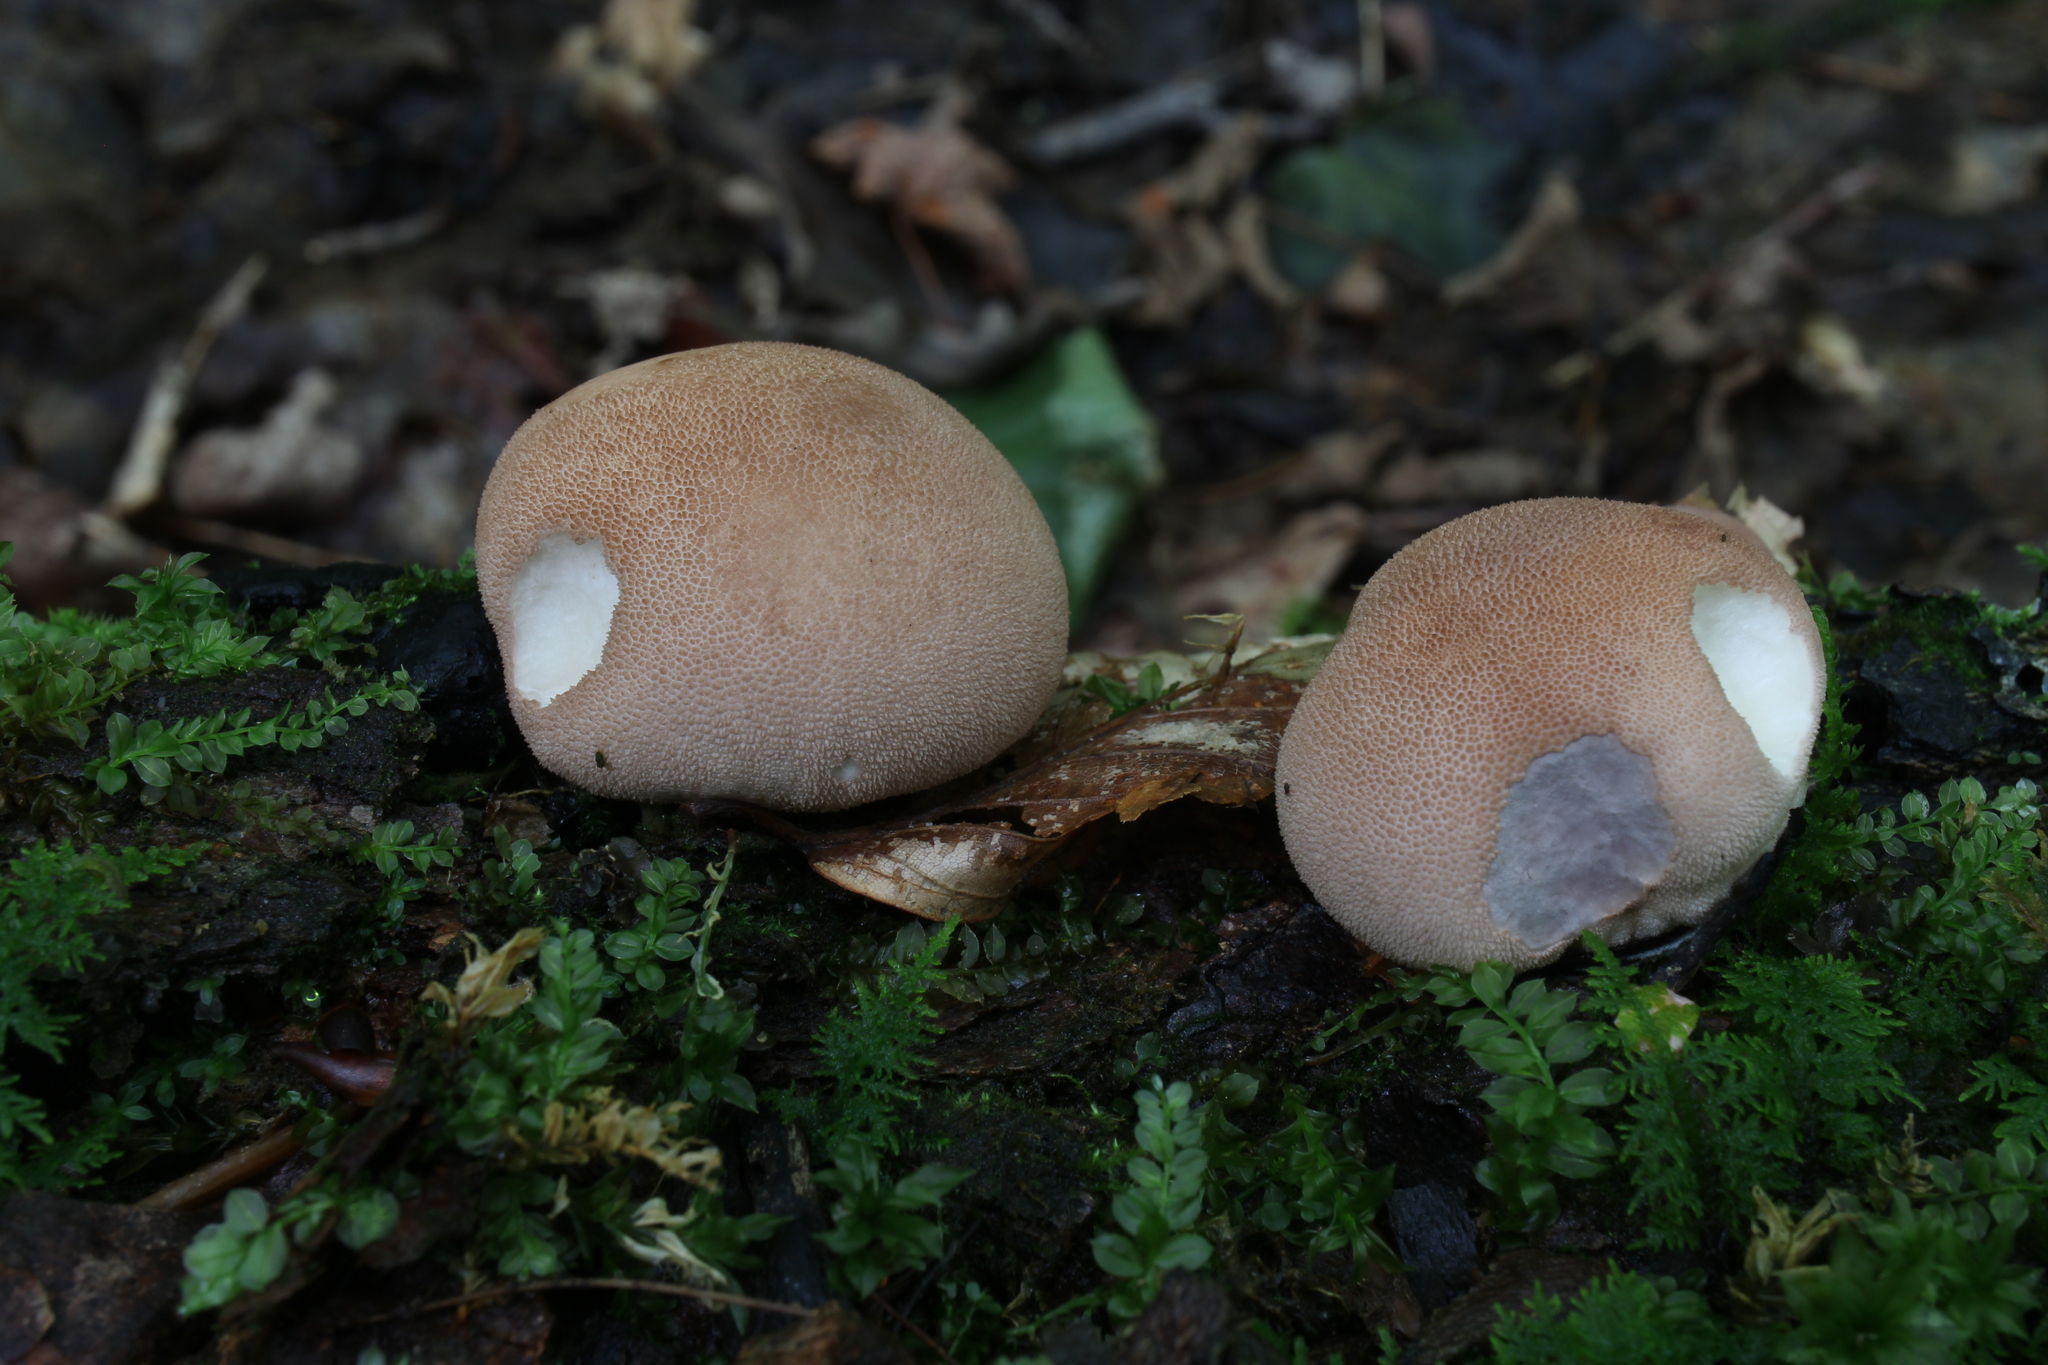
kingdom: Fungi
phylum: Basidiomycota
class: Agaricomycetes
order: Agaricales
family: Lycoperdaceae
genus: Lycoperdon
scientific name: Lycoperdon subincarnatum
